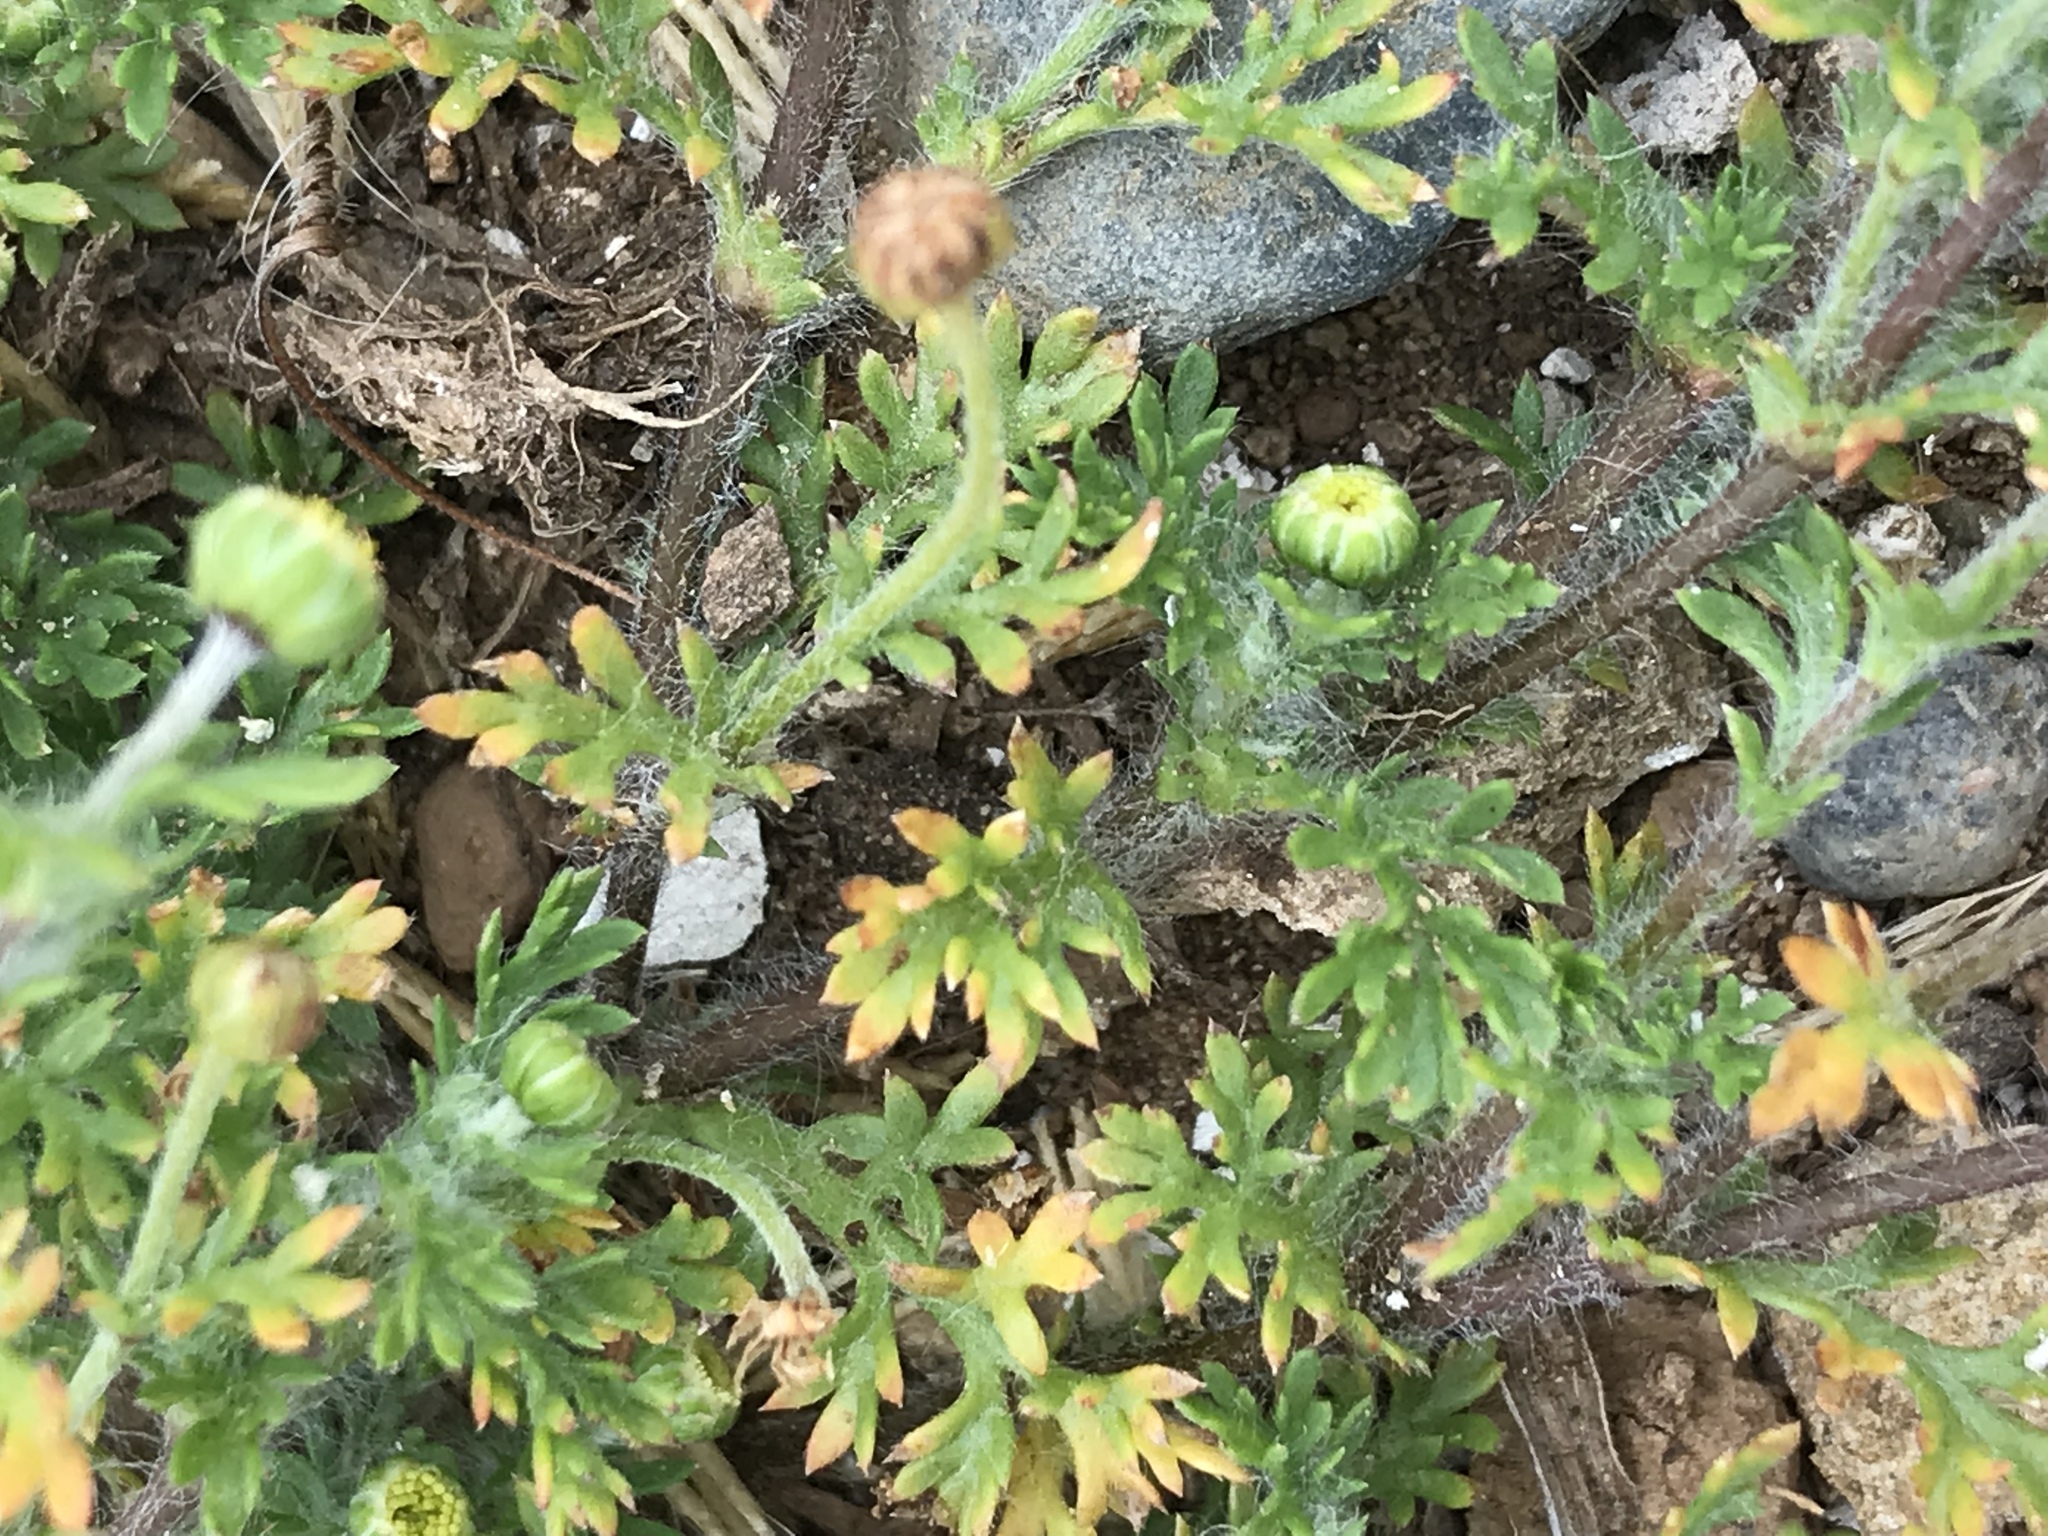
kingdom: Plantae
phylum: Tracheophyta
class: Magnoliopsida
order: Asterales
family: Asteraceae
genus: Cotula
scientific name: Cotula australis
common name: Australian waterbuttons
